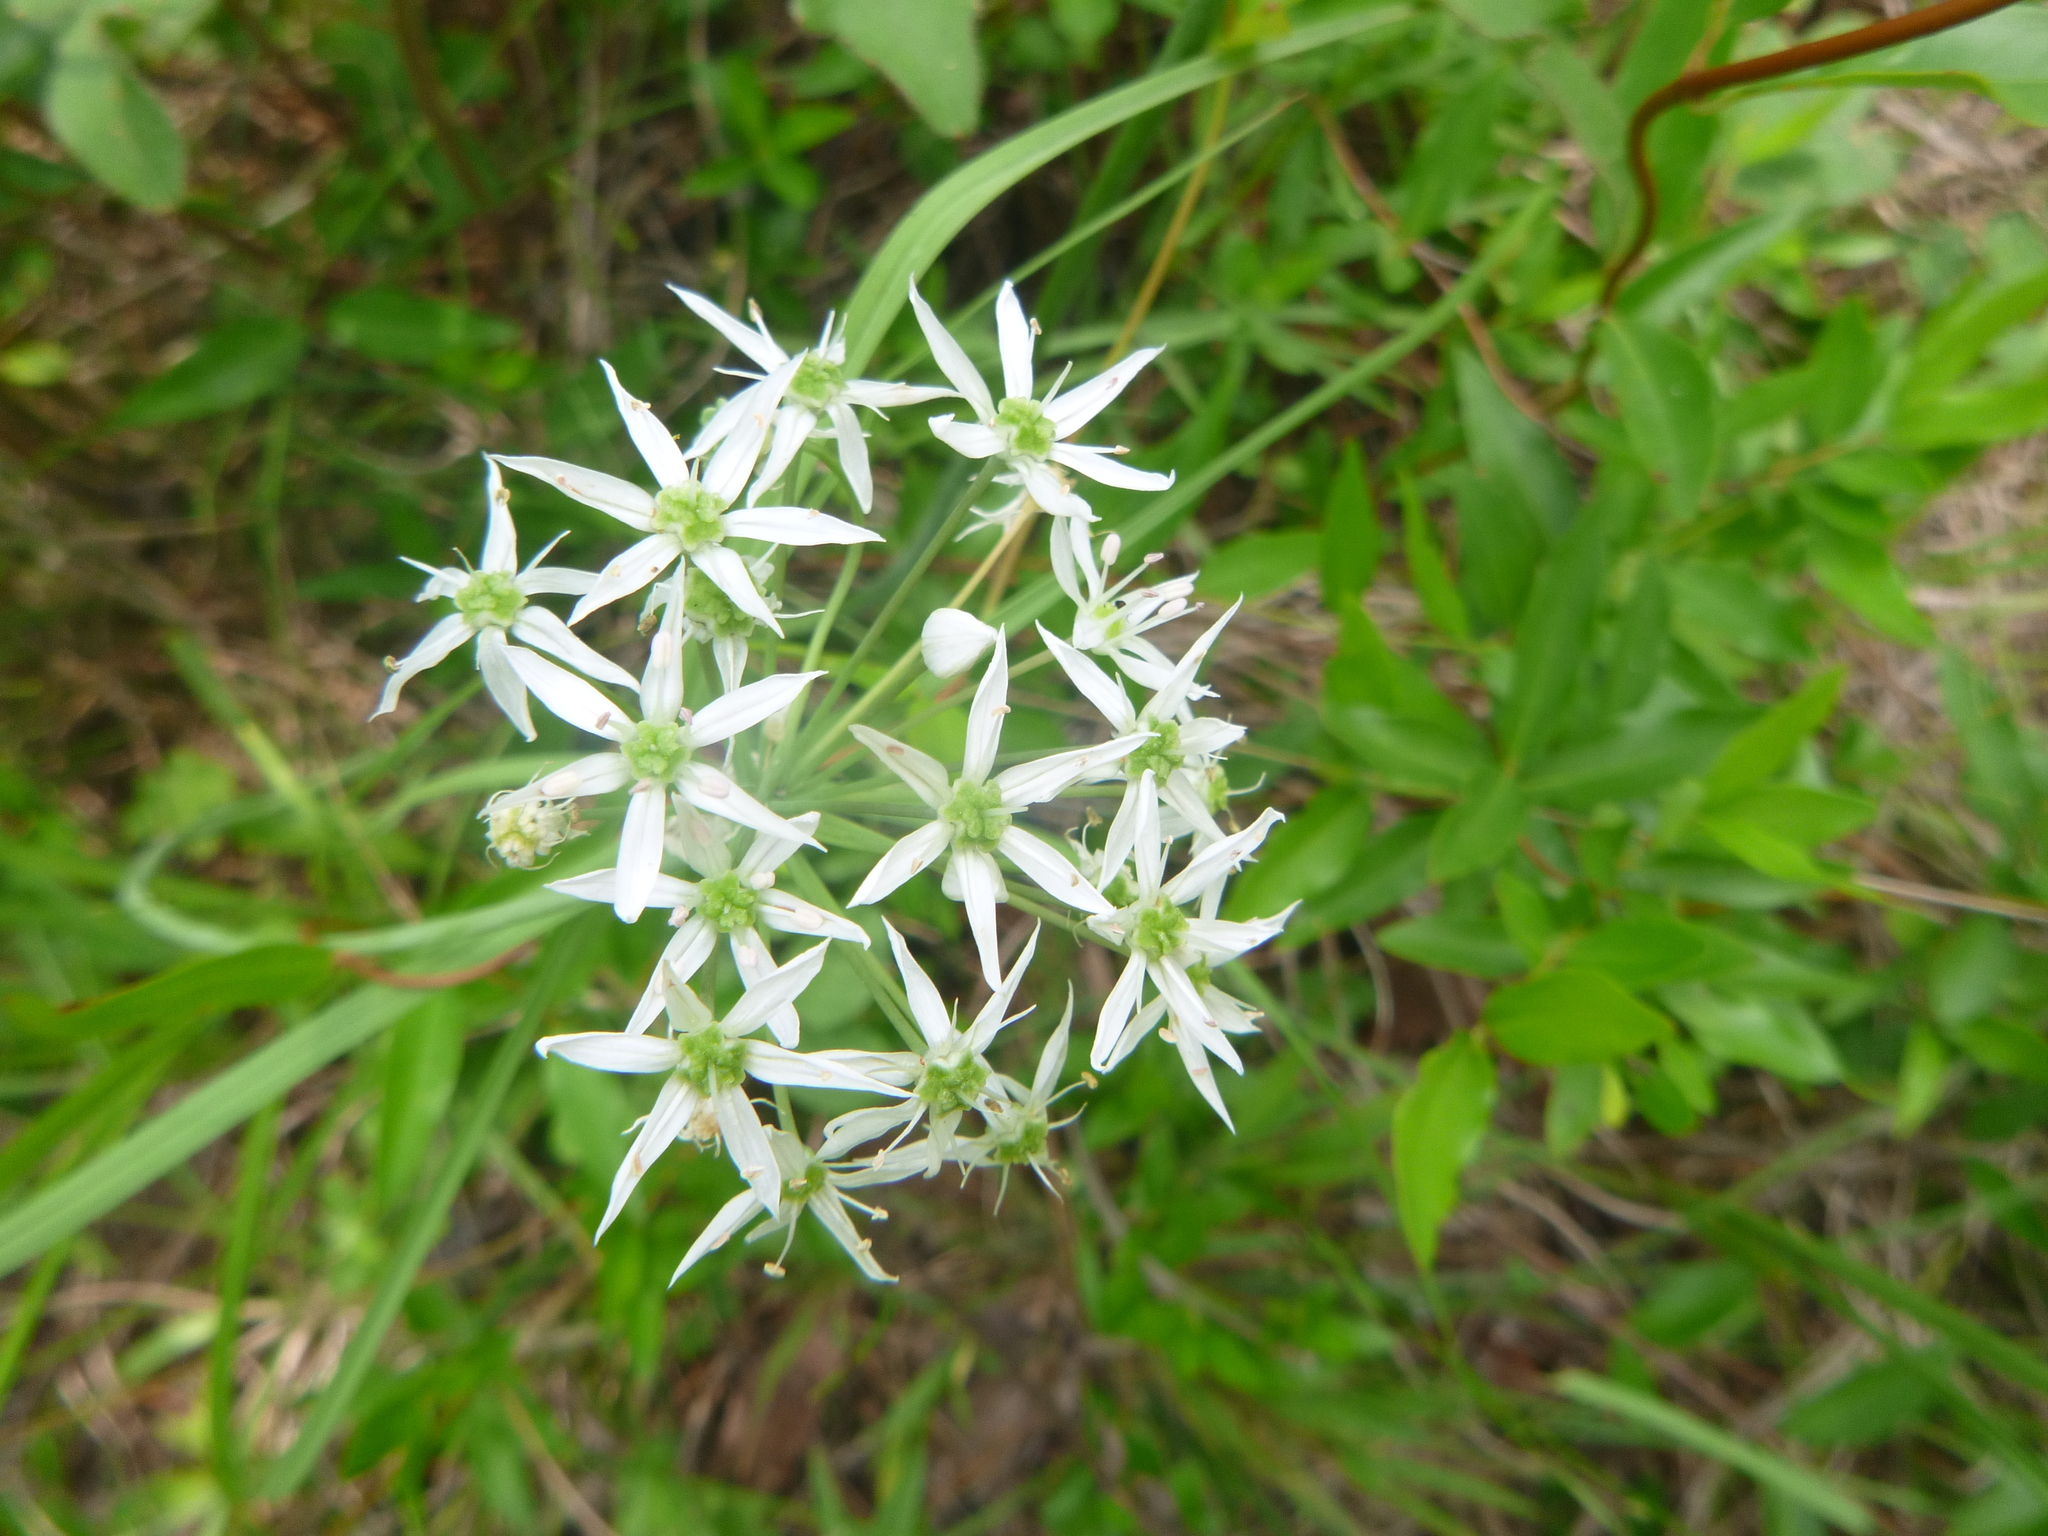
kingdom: Plantae
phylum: Tracheophyta
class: Liliopsida
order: Asparagales
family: Amaryllidaceae
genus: Allium
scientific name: Allium cuthbertii
